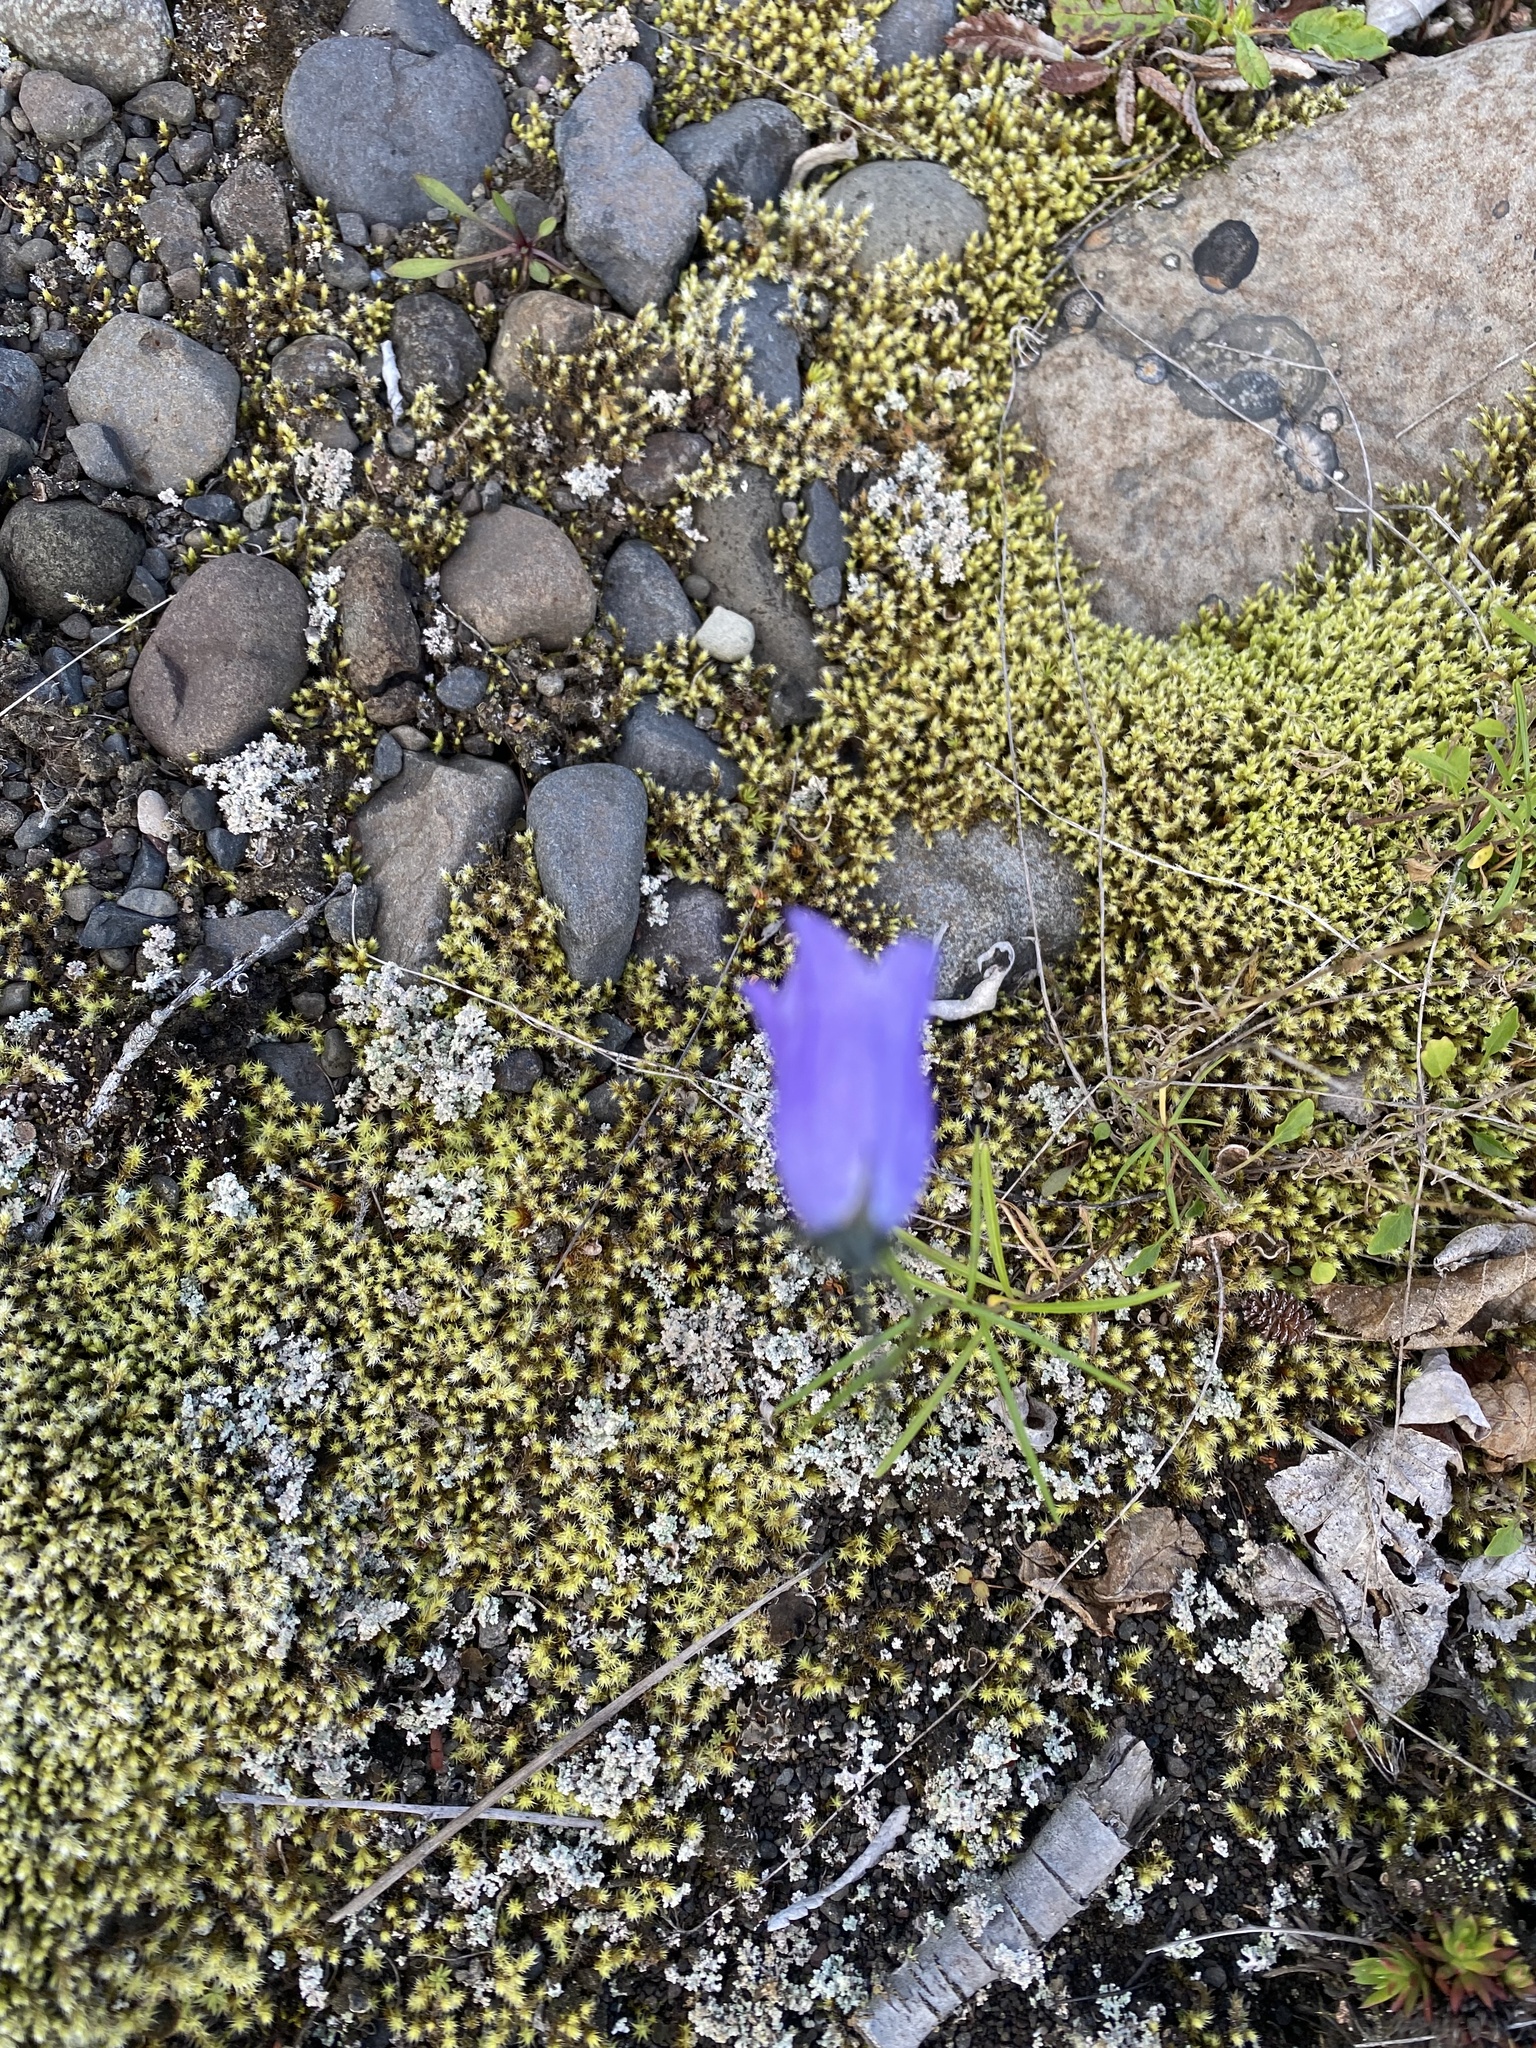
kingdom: Plantae
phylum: Tracheophyta
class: Magnoliopsida
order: Asterales
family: Campanulaceae
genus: Campanula
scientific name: Campanula rotundifolia
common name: Harebell
